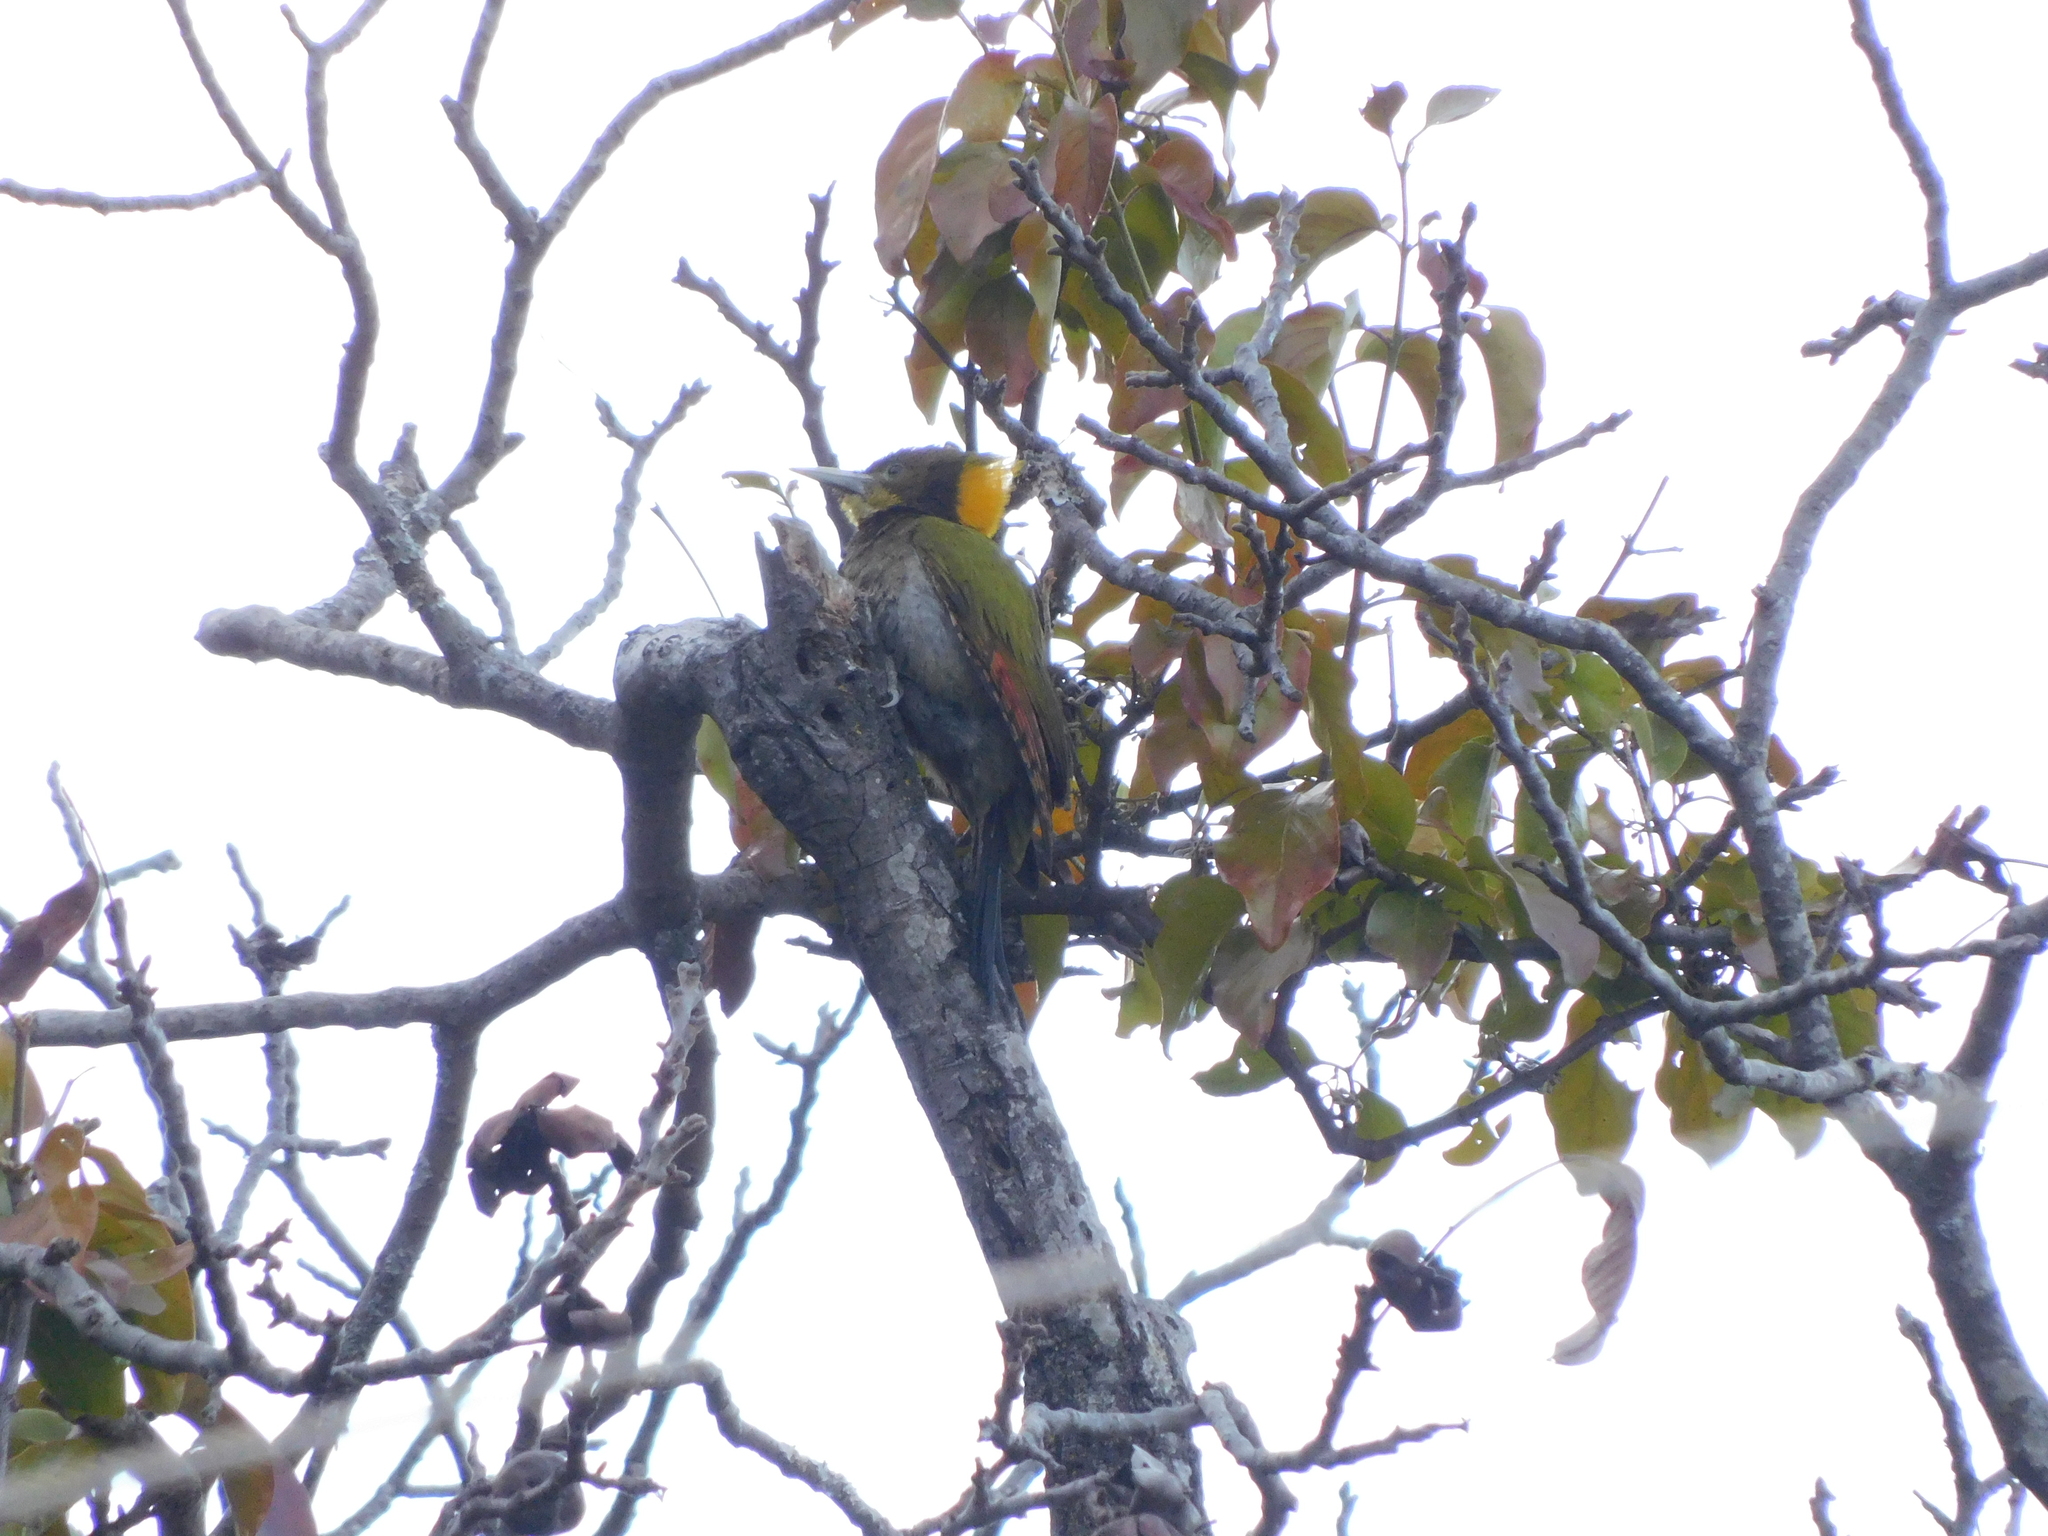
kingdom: Animalia
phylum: Chordata
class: Aves
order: Piciformes
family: Picidae
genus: Chrysophlegma
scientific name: Chrysophlegma flavinucha
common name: Greater yellownape
